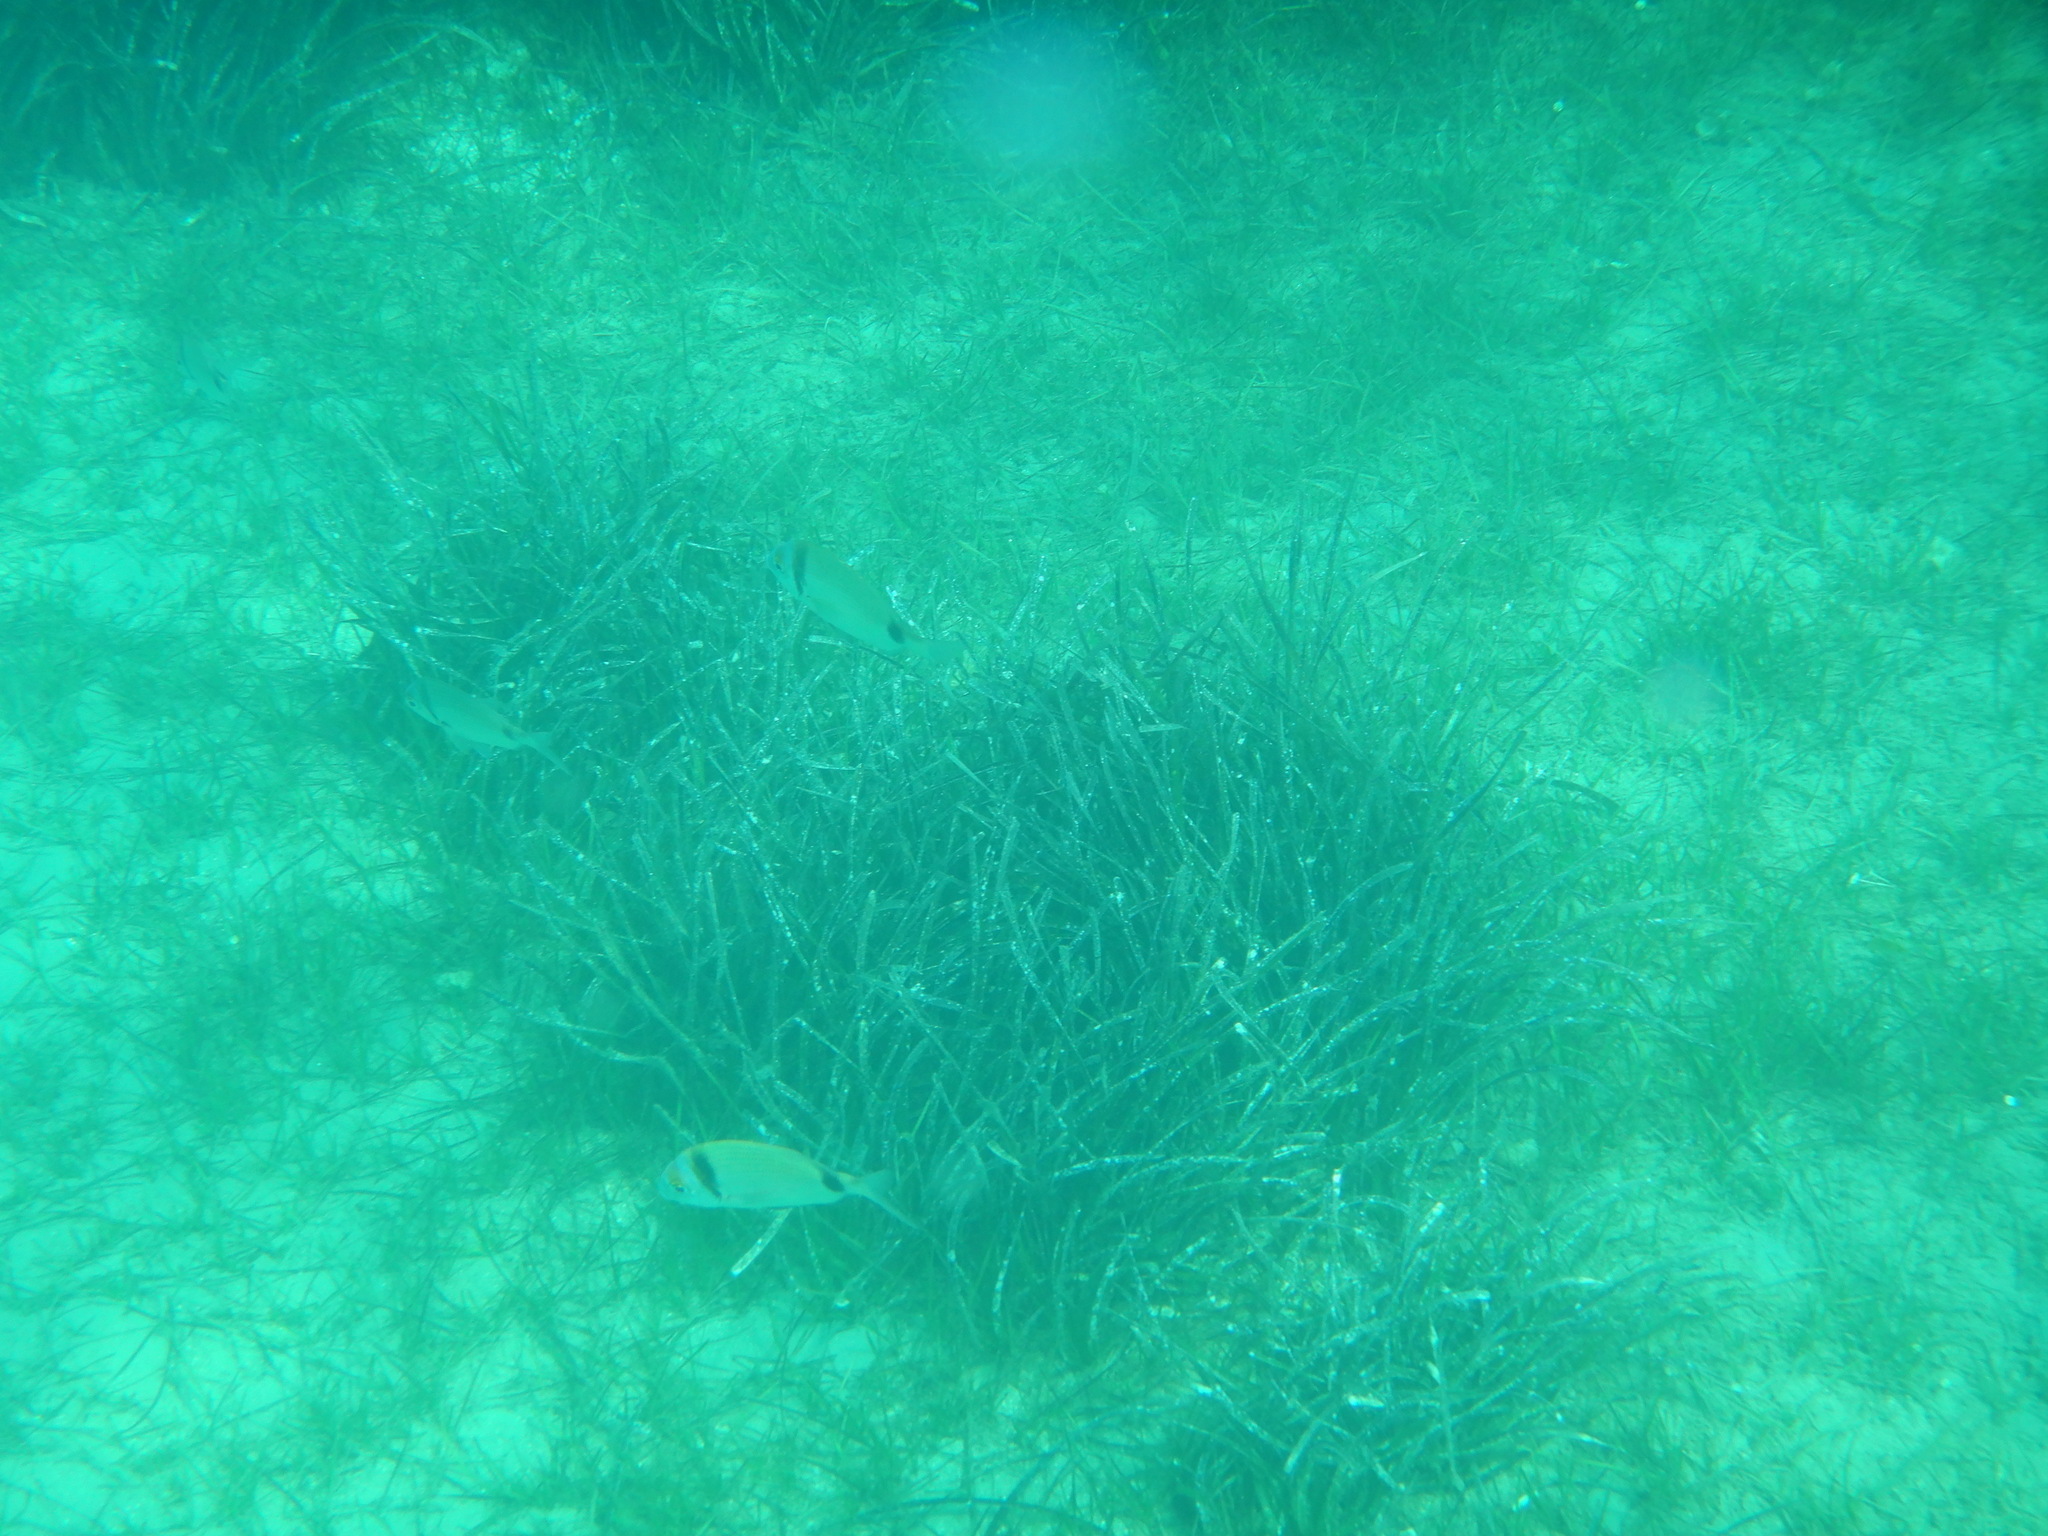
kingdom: Animalia
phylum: Chordata
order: Perciformes
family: Sparidae
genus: Diplodus
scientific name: Diplodus vulgaris
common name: Common two-banded seabream
